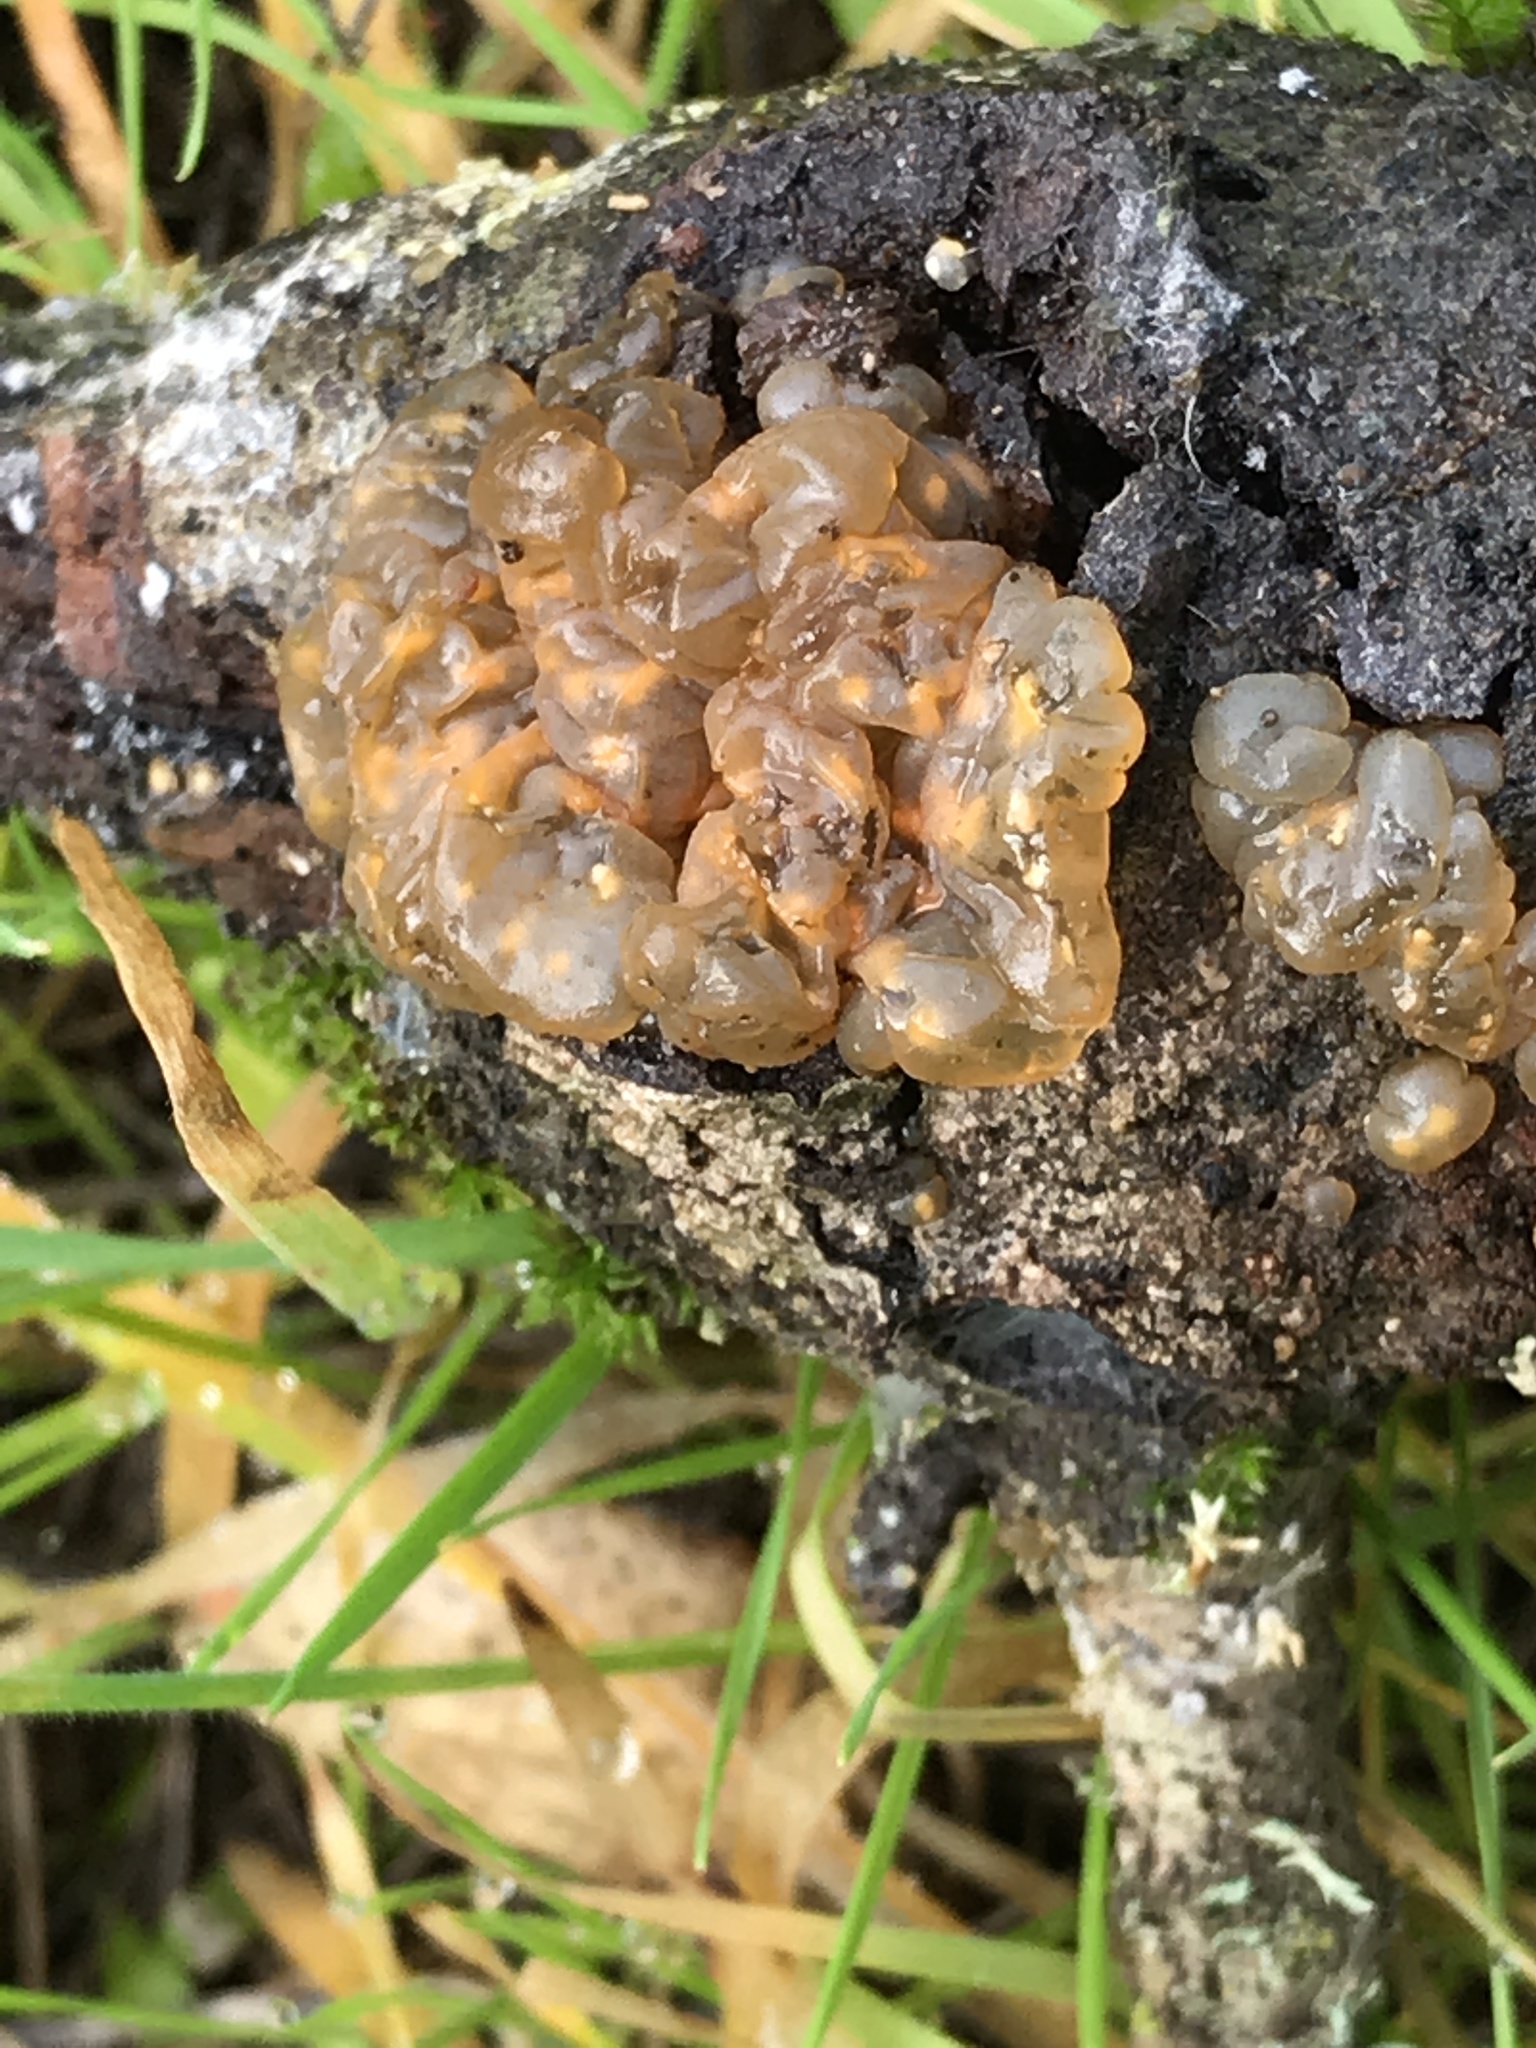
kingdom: Fungi
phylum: Basidiomycota
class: Agaricomycetes
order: Auriculariales
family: Hyaloriaceae
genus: Myxarium
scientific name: Myxarium nucleatum
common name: Crystal brain fungus
